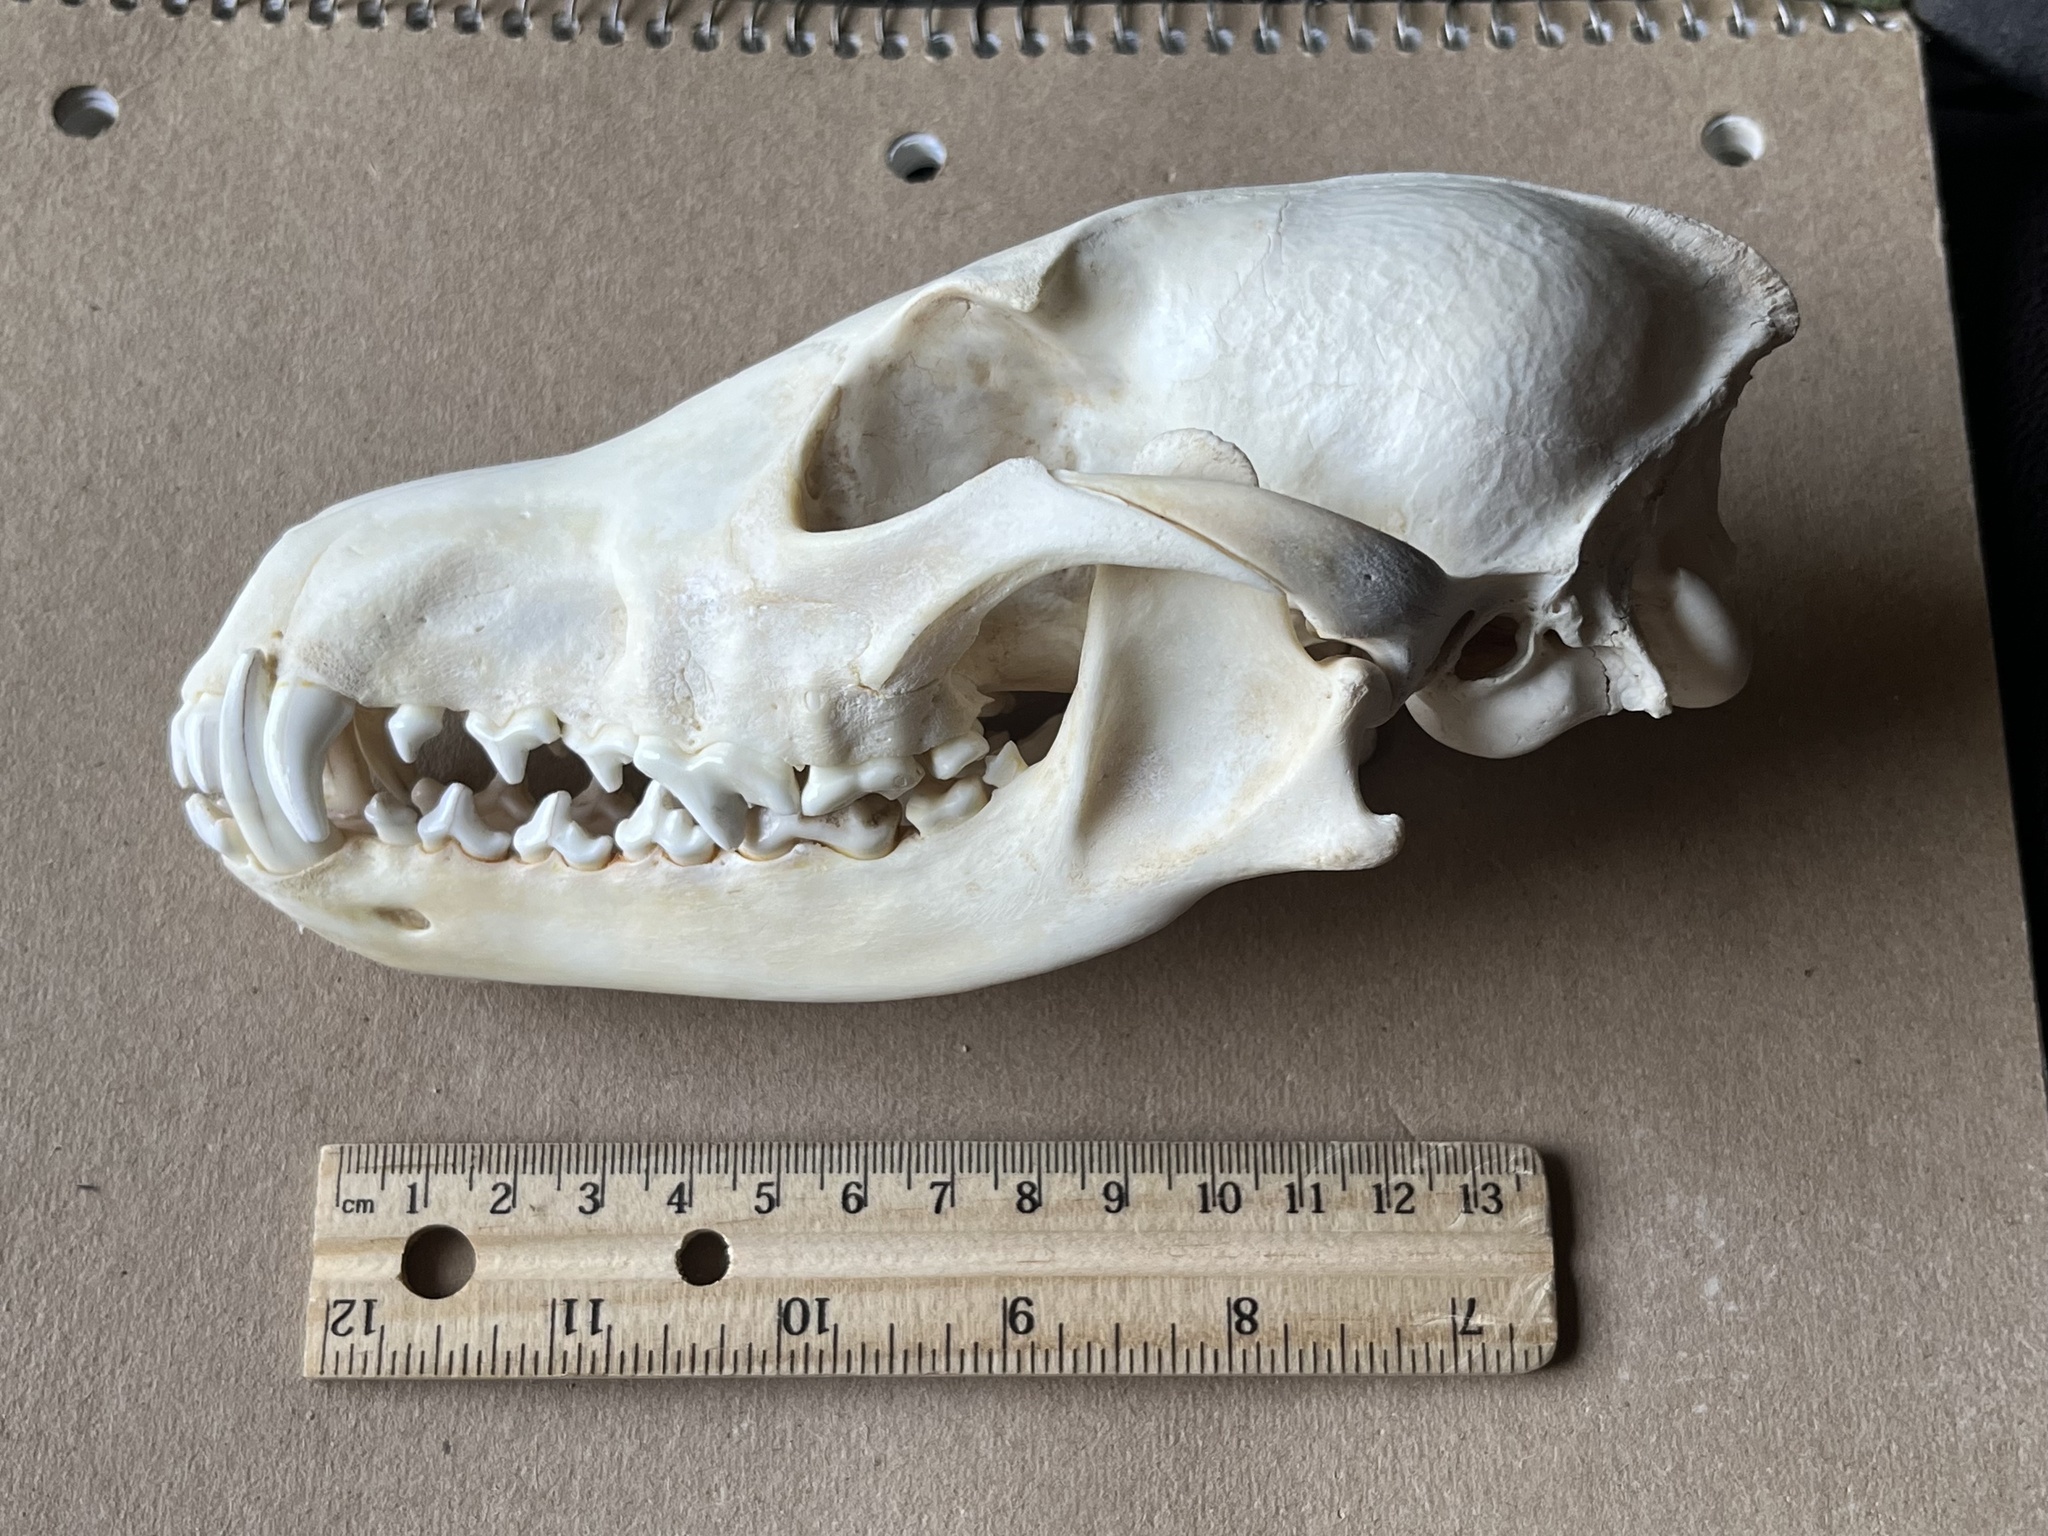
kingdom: Animalia
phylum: Chordata
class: Mammalia
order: Carnivora
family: Canidae
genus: Canis
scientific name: Canis latrans
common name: Coyote
